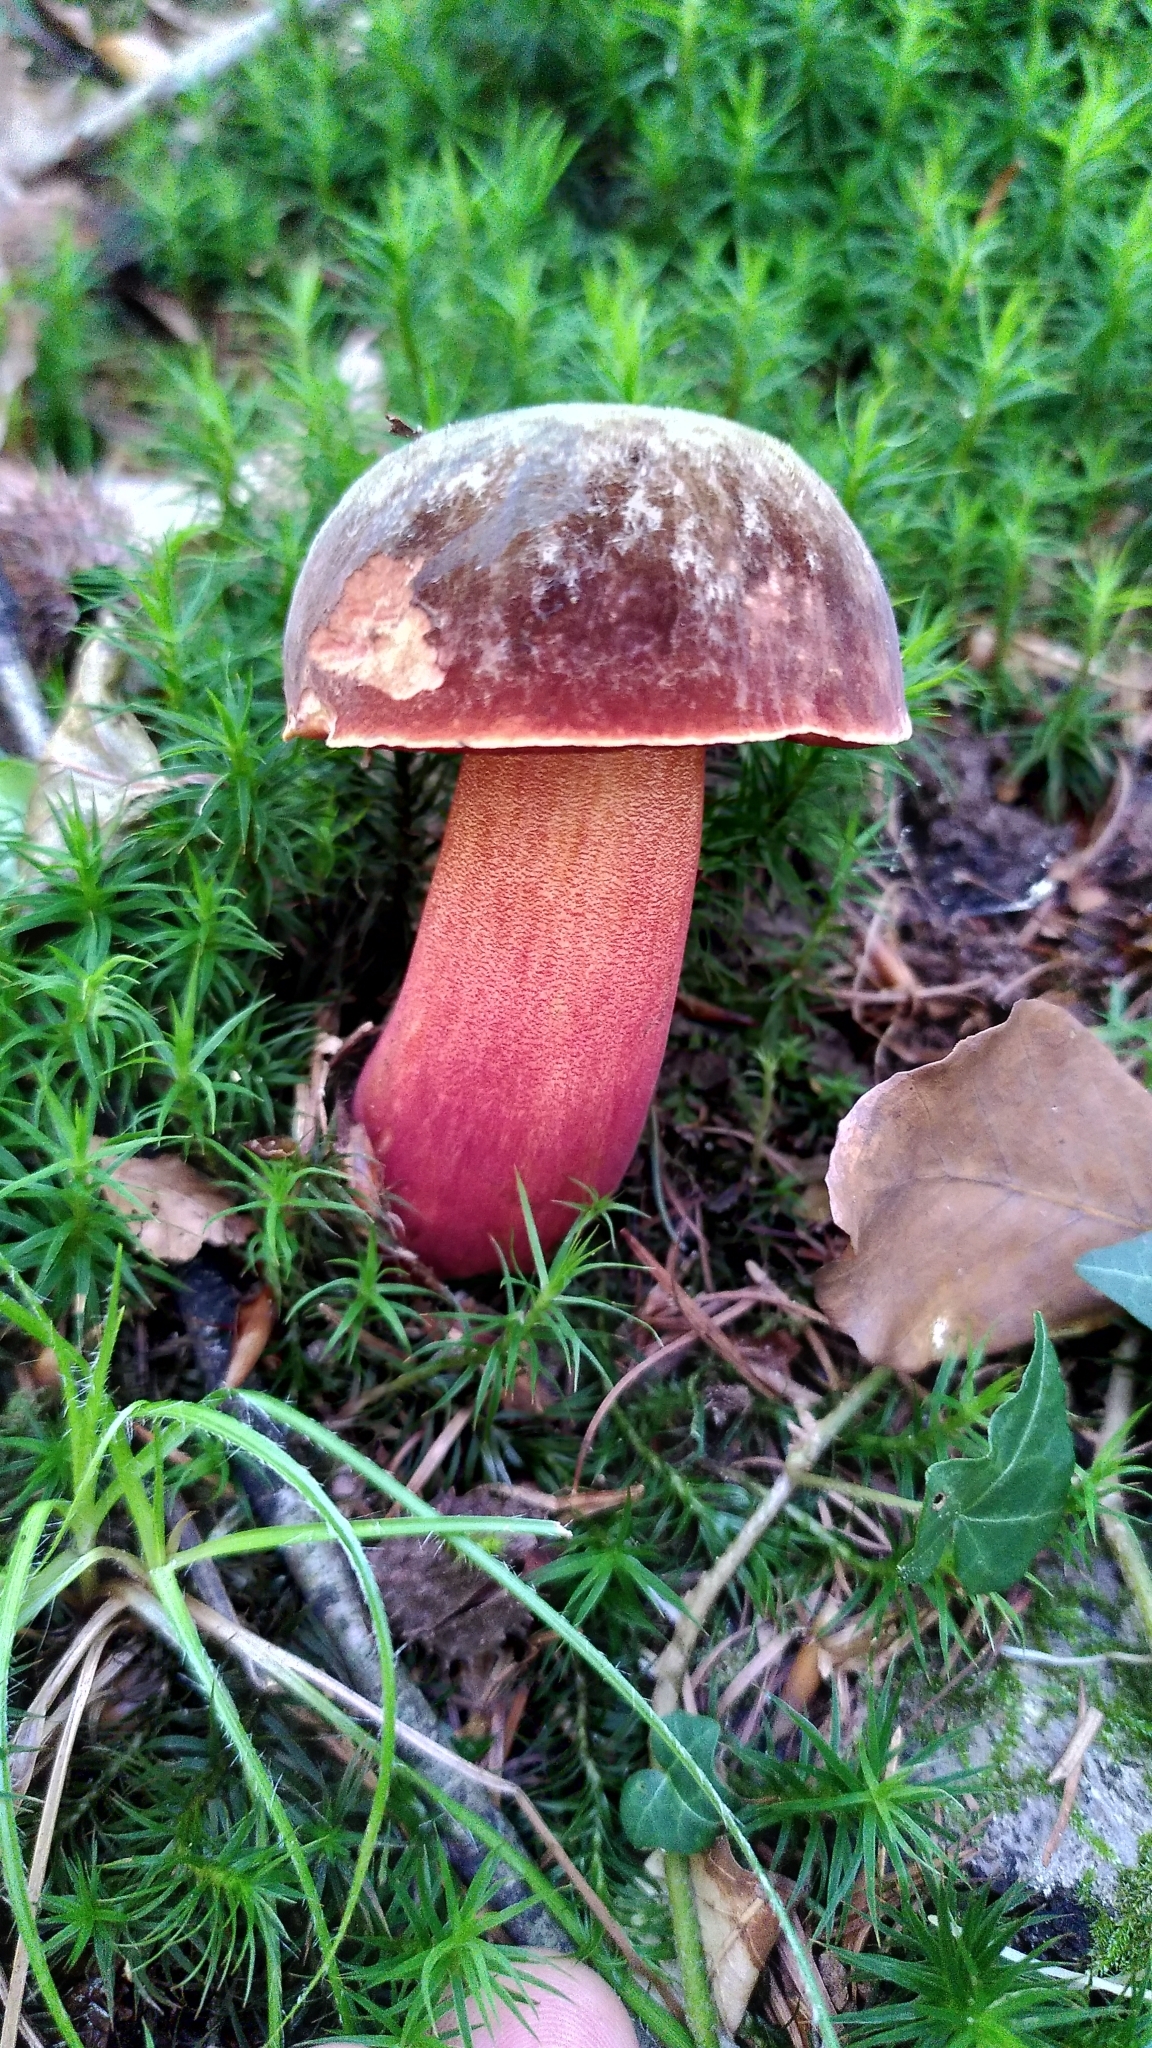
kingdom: Fungi
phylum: Basidiomycota
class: Agaricomycetes
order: Boletales
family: Boletaceae
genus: Neoboletus
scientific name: Neoboletus erythropus
